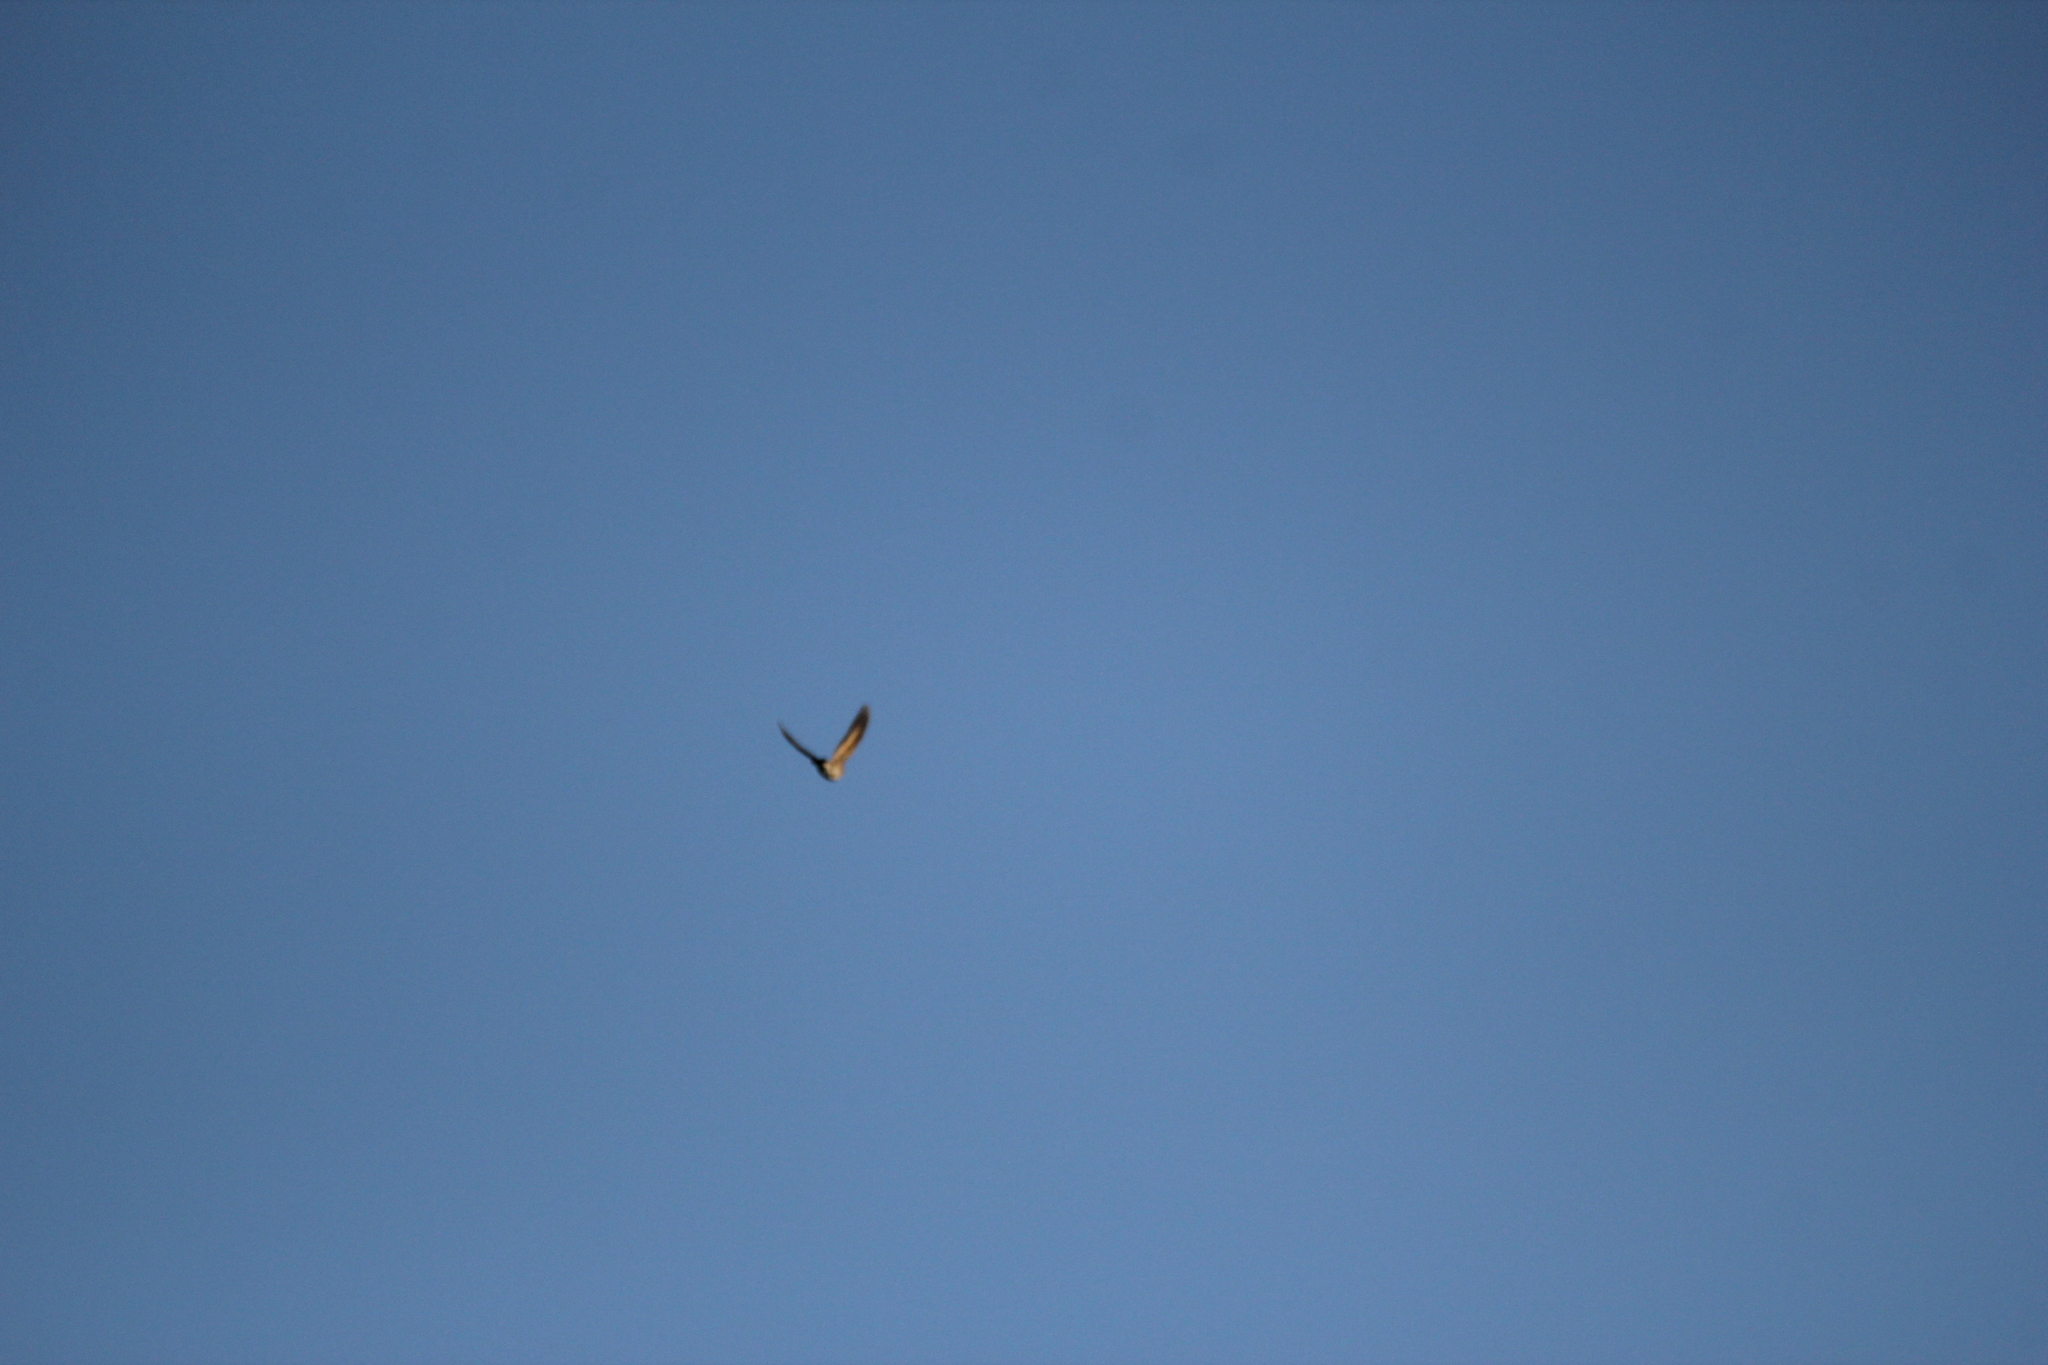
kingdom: Animalia
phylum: Chordata
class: Aves
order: Passeriformes
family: Turdidae
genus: Catharus
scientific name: Catharus ustulatus
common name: Swainson's thrush
